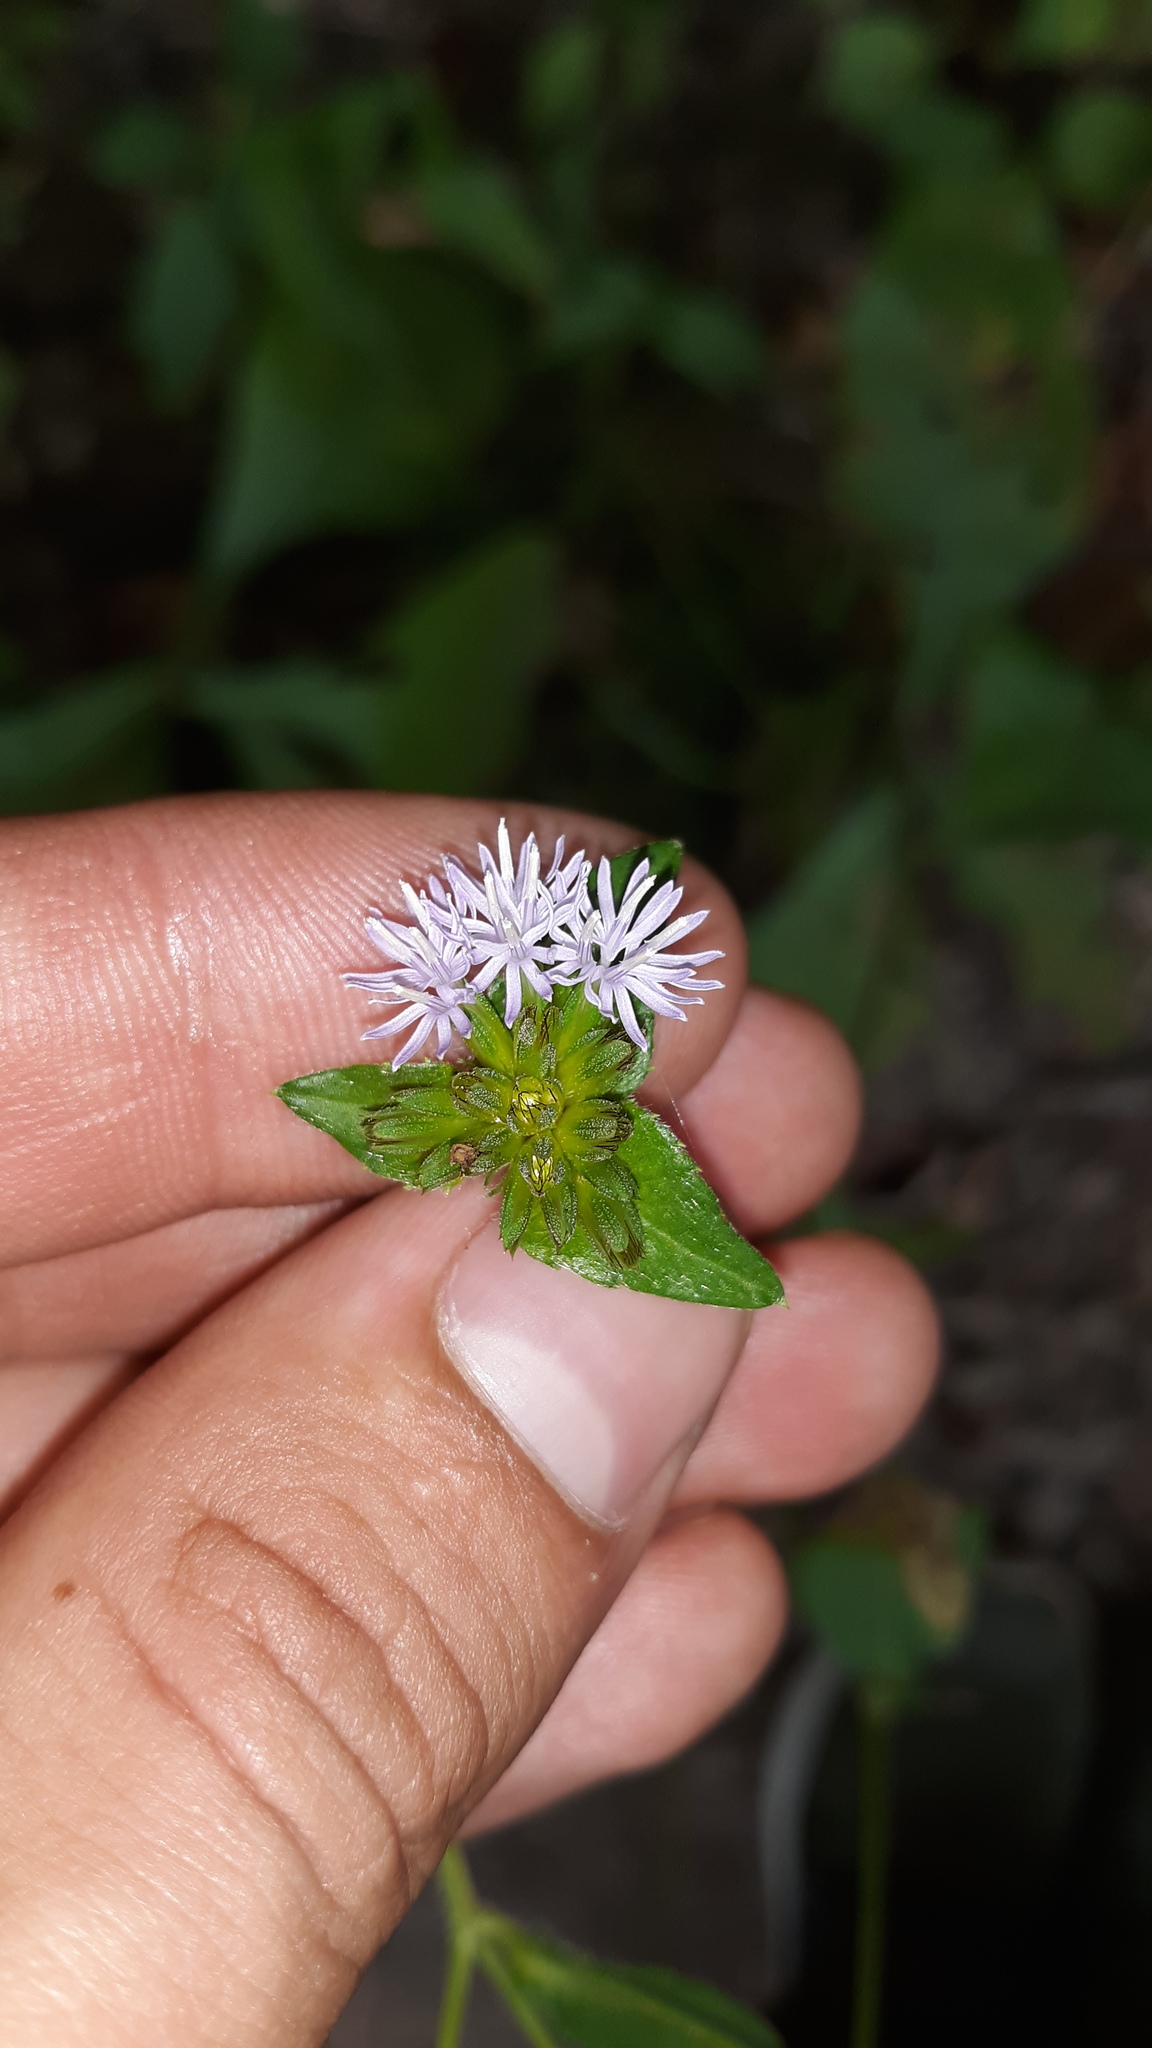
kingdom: Plantae
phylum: Tracheophyta
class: Magnoliopsida
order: Asterales
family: Asteraceae
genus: Elephantopus
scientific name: Elephantopus carolinianus
